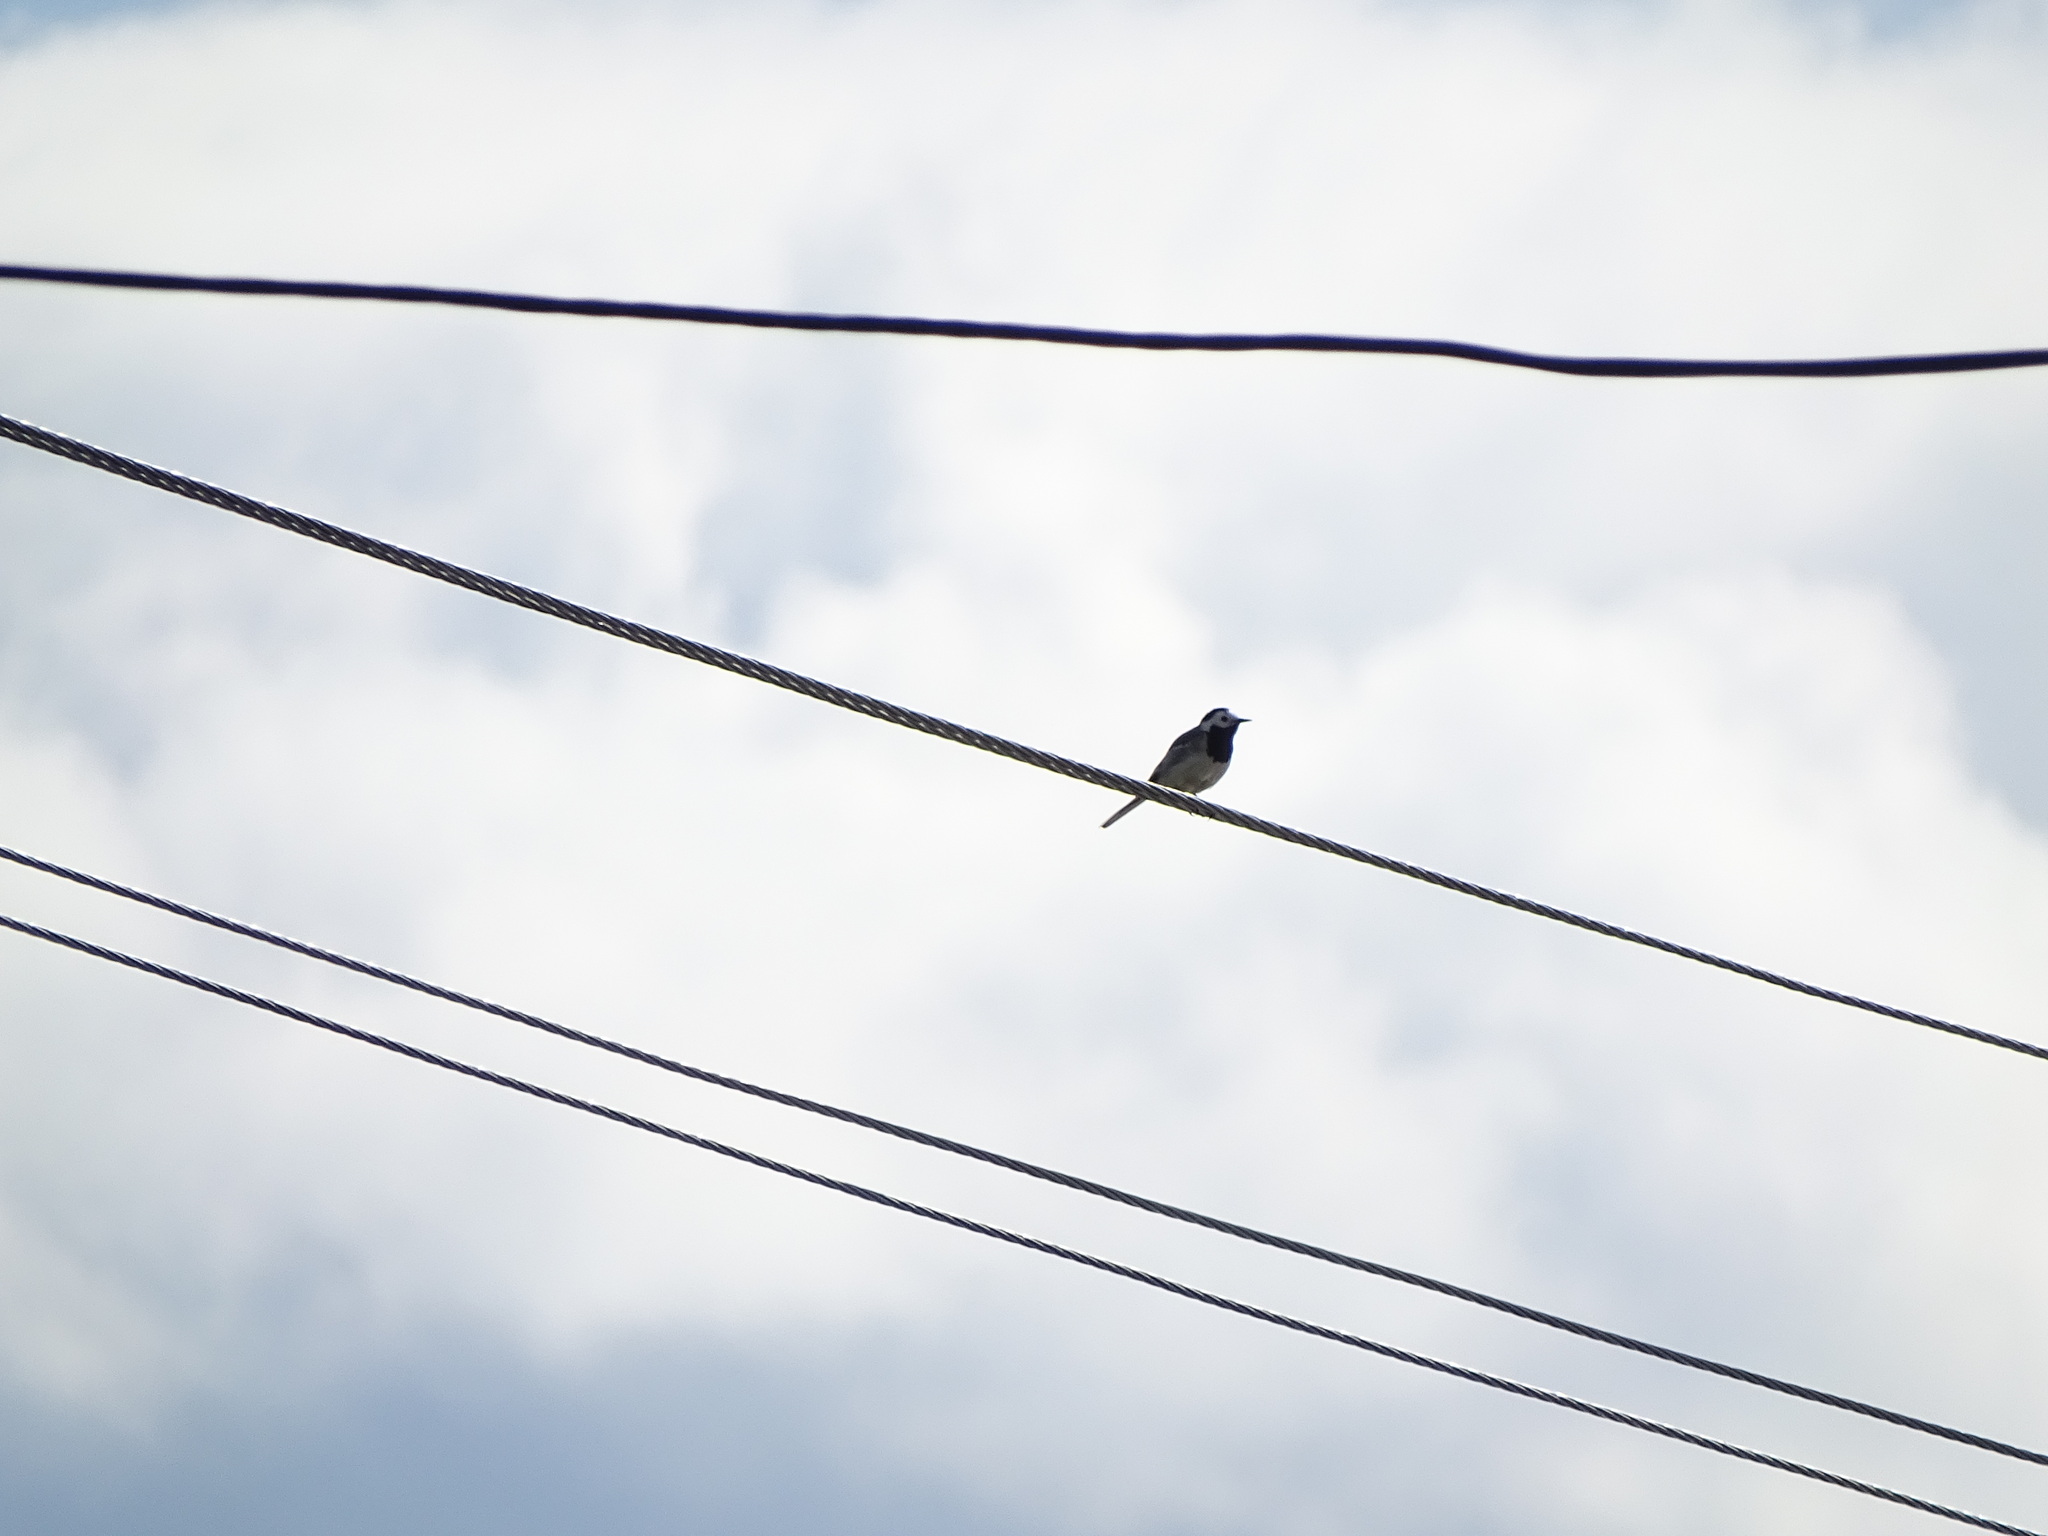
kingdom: Animalia
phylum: Chordata
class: Aves
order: Passeriformes
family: Motacillidae
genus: Motacilla
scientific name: Motacilla alba
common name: White wagtail
